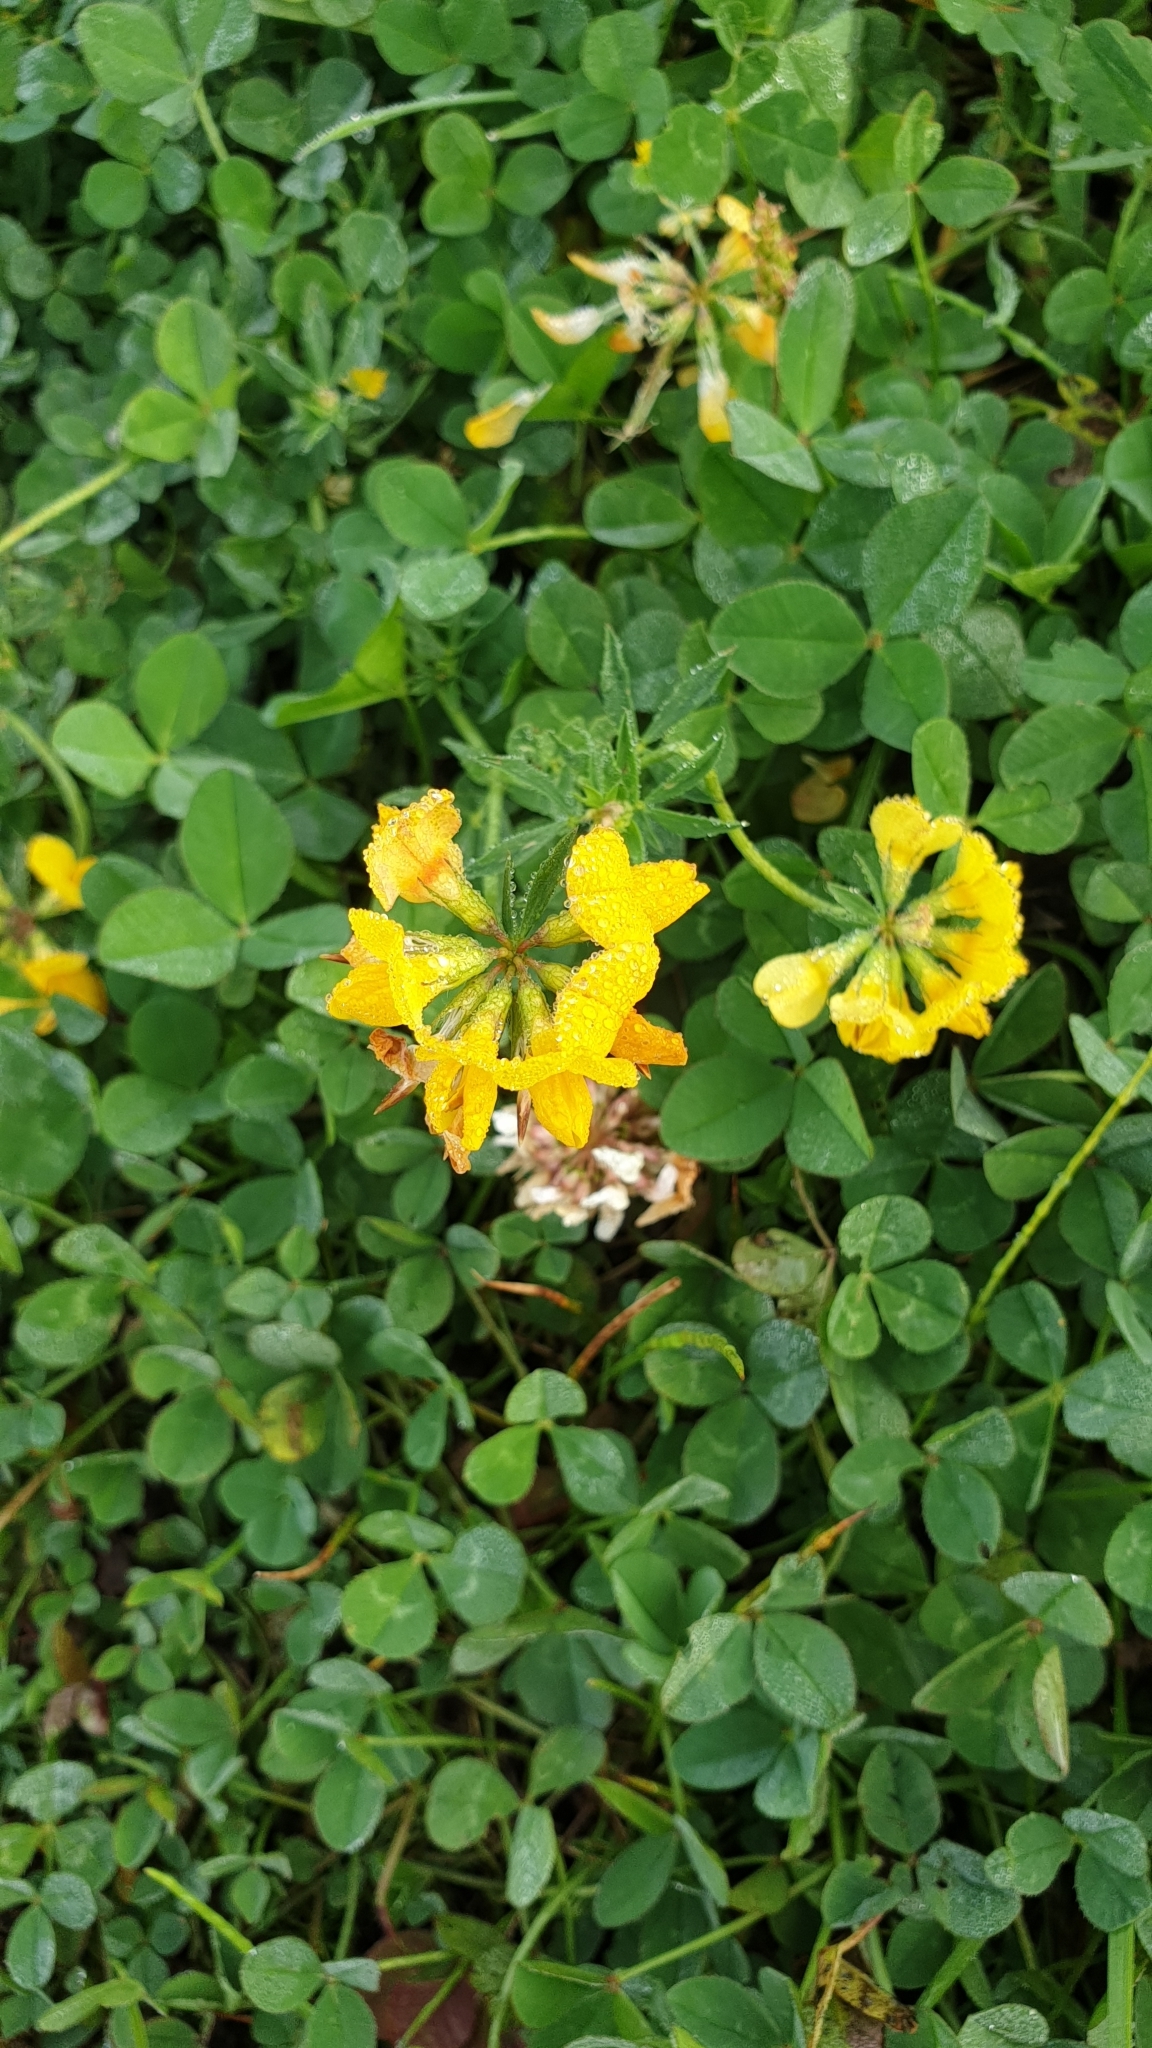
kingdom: Plantae
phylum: Tracheophyta
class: Magnoliopsida
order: Fabales
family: Fabaceae
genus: Lotus
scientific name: Lotus corniculatus
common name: Common bird's-foot-trefoil
